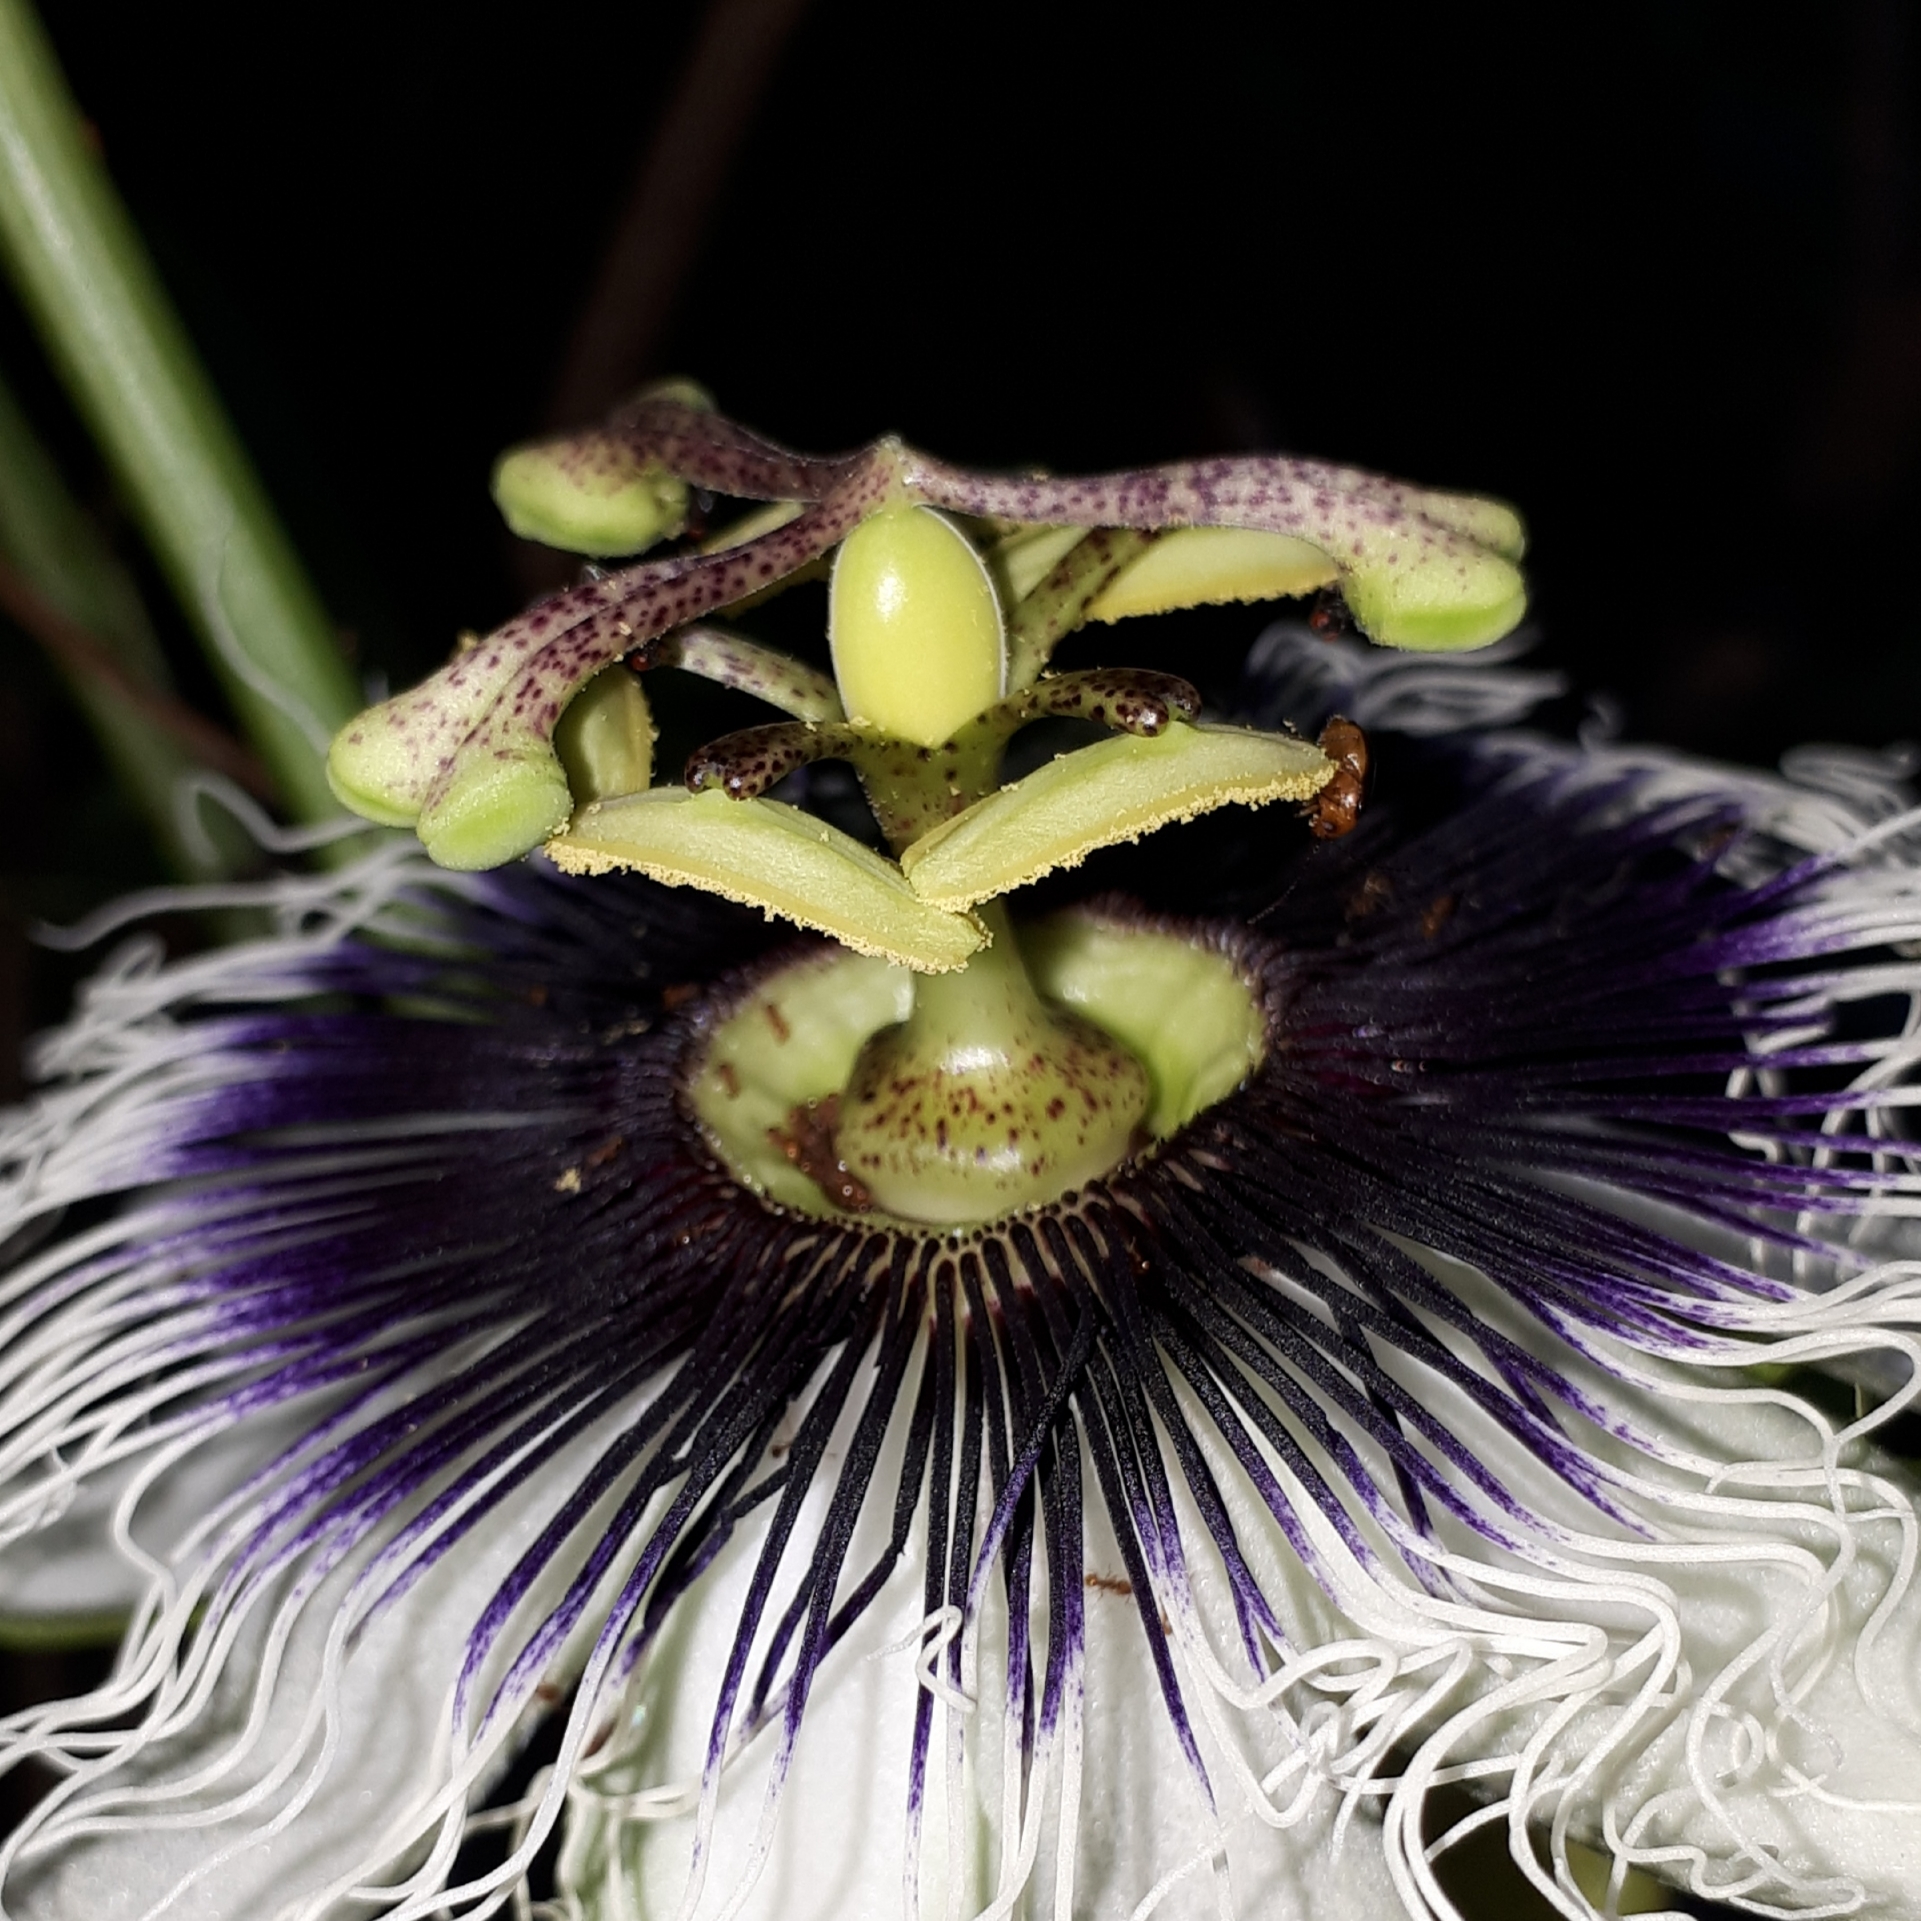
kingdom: Plantae
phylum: Tracheophyta
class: Magnoliopsida
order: Malpighiales
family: Passifloraceae
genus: Passiflora
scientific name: Passiflora edulis
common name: Purple granadilla
